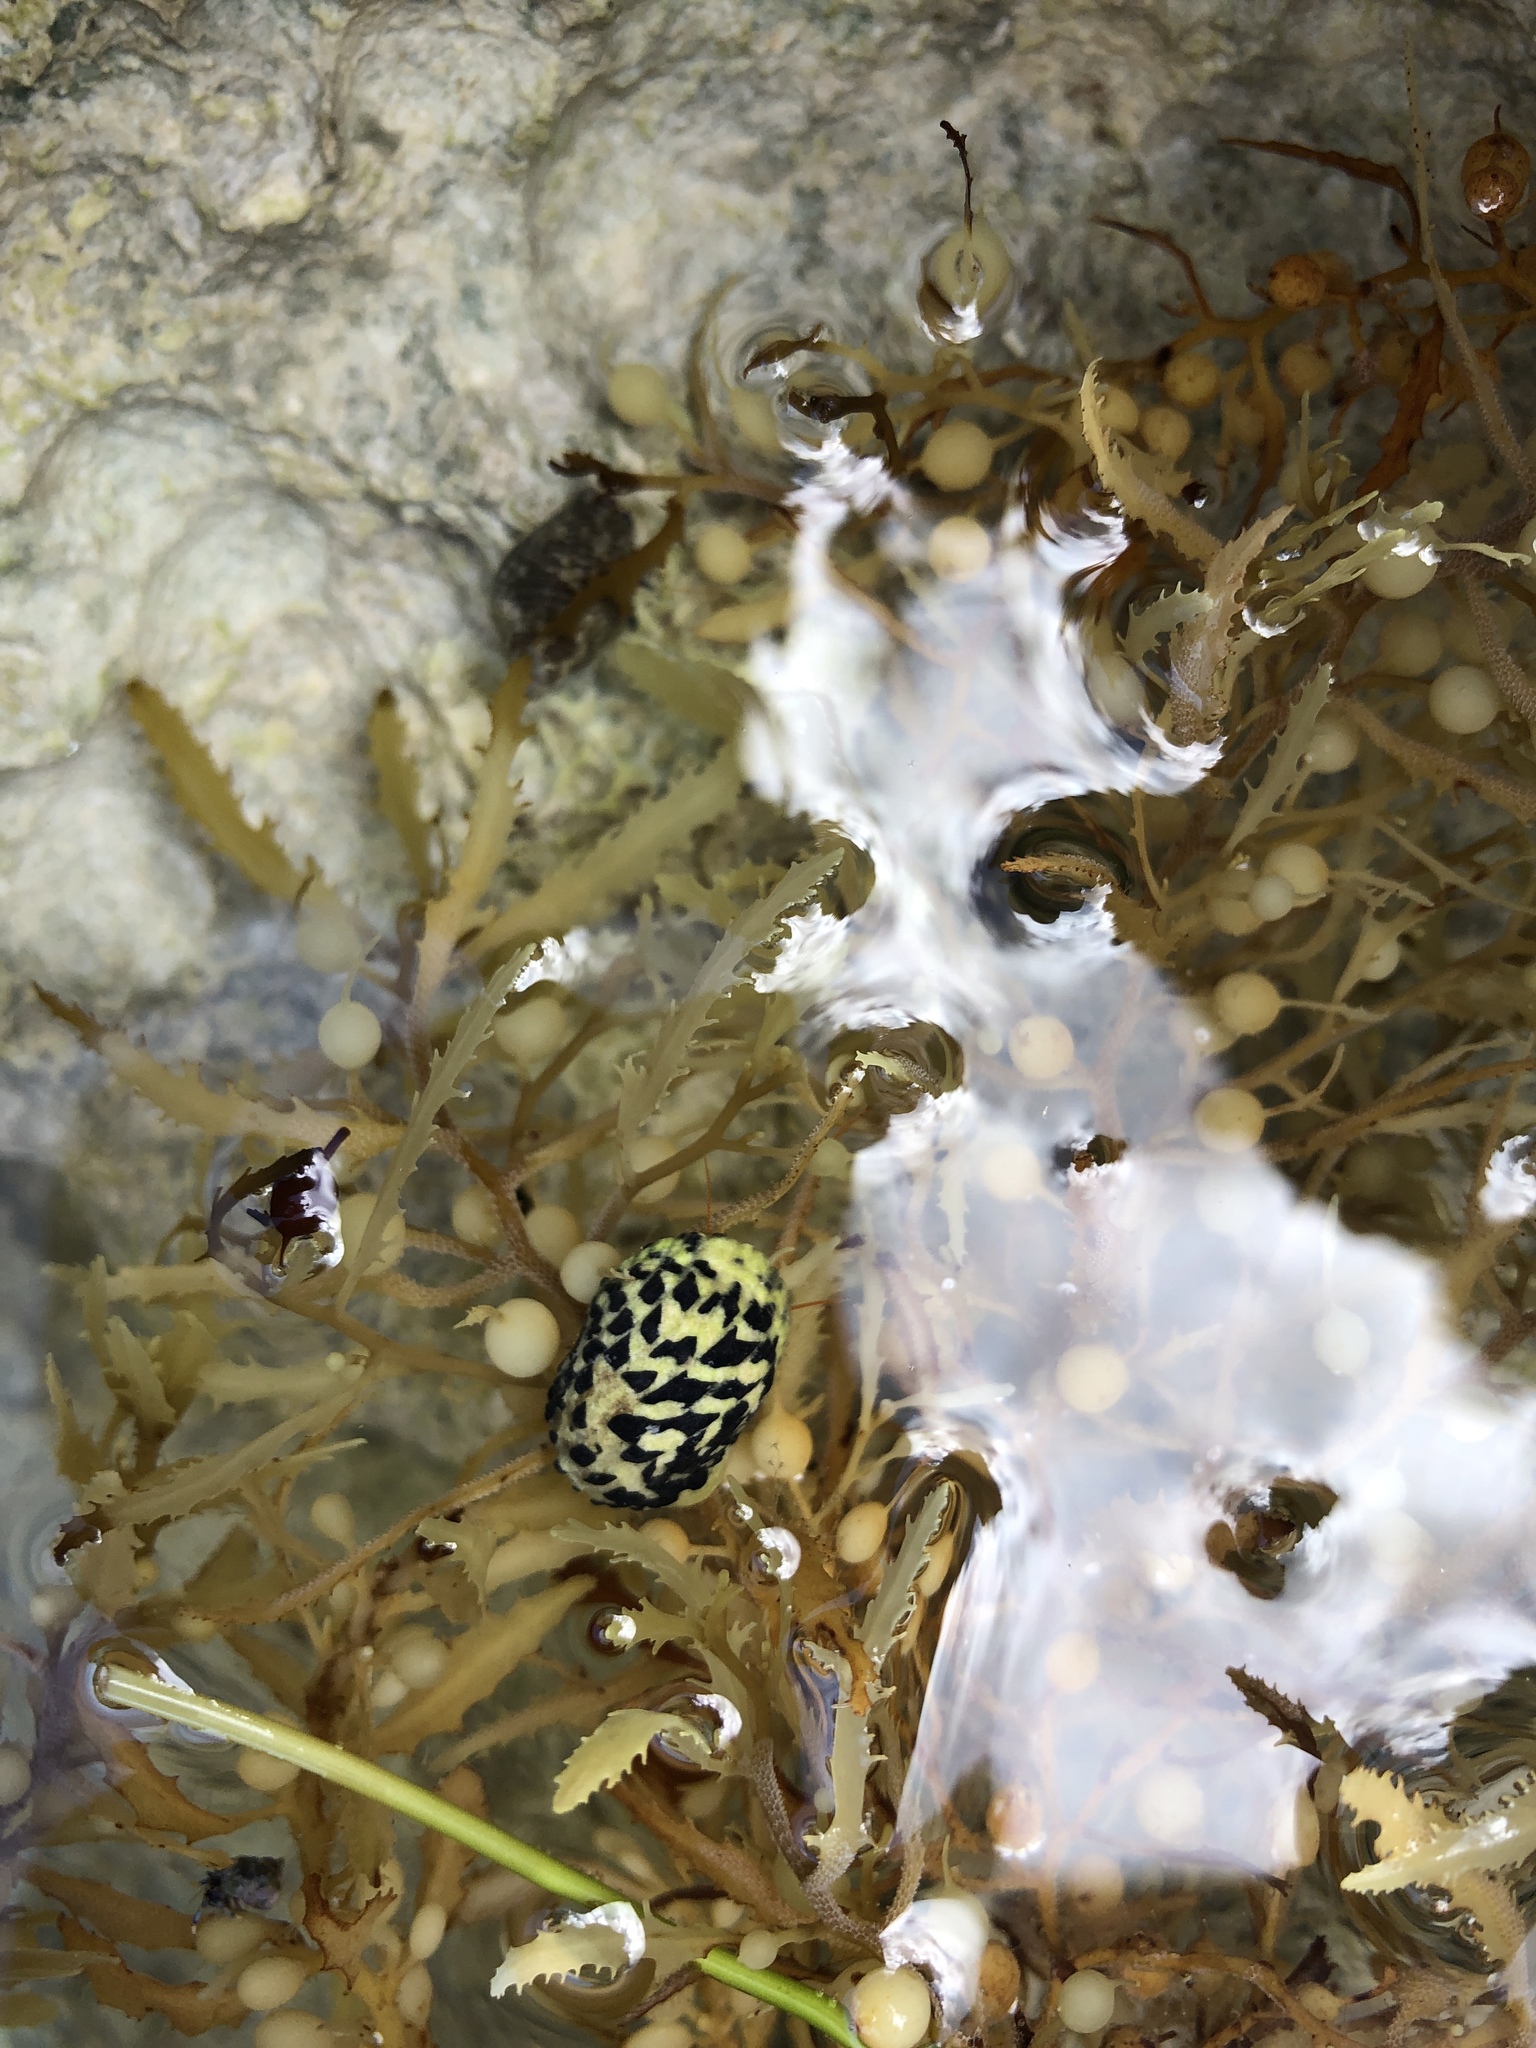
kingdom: Animalia
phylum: Mollusca
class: Gastropoda
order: Cycloneritida
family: Neritidae
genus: Nerita
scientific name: Nerita tessellata
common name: Checkered nerite
